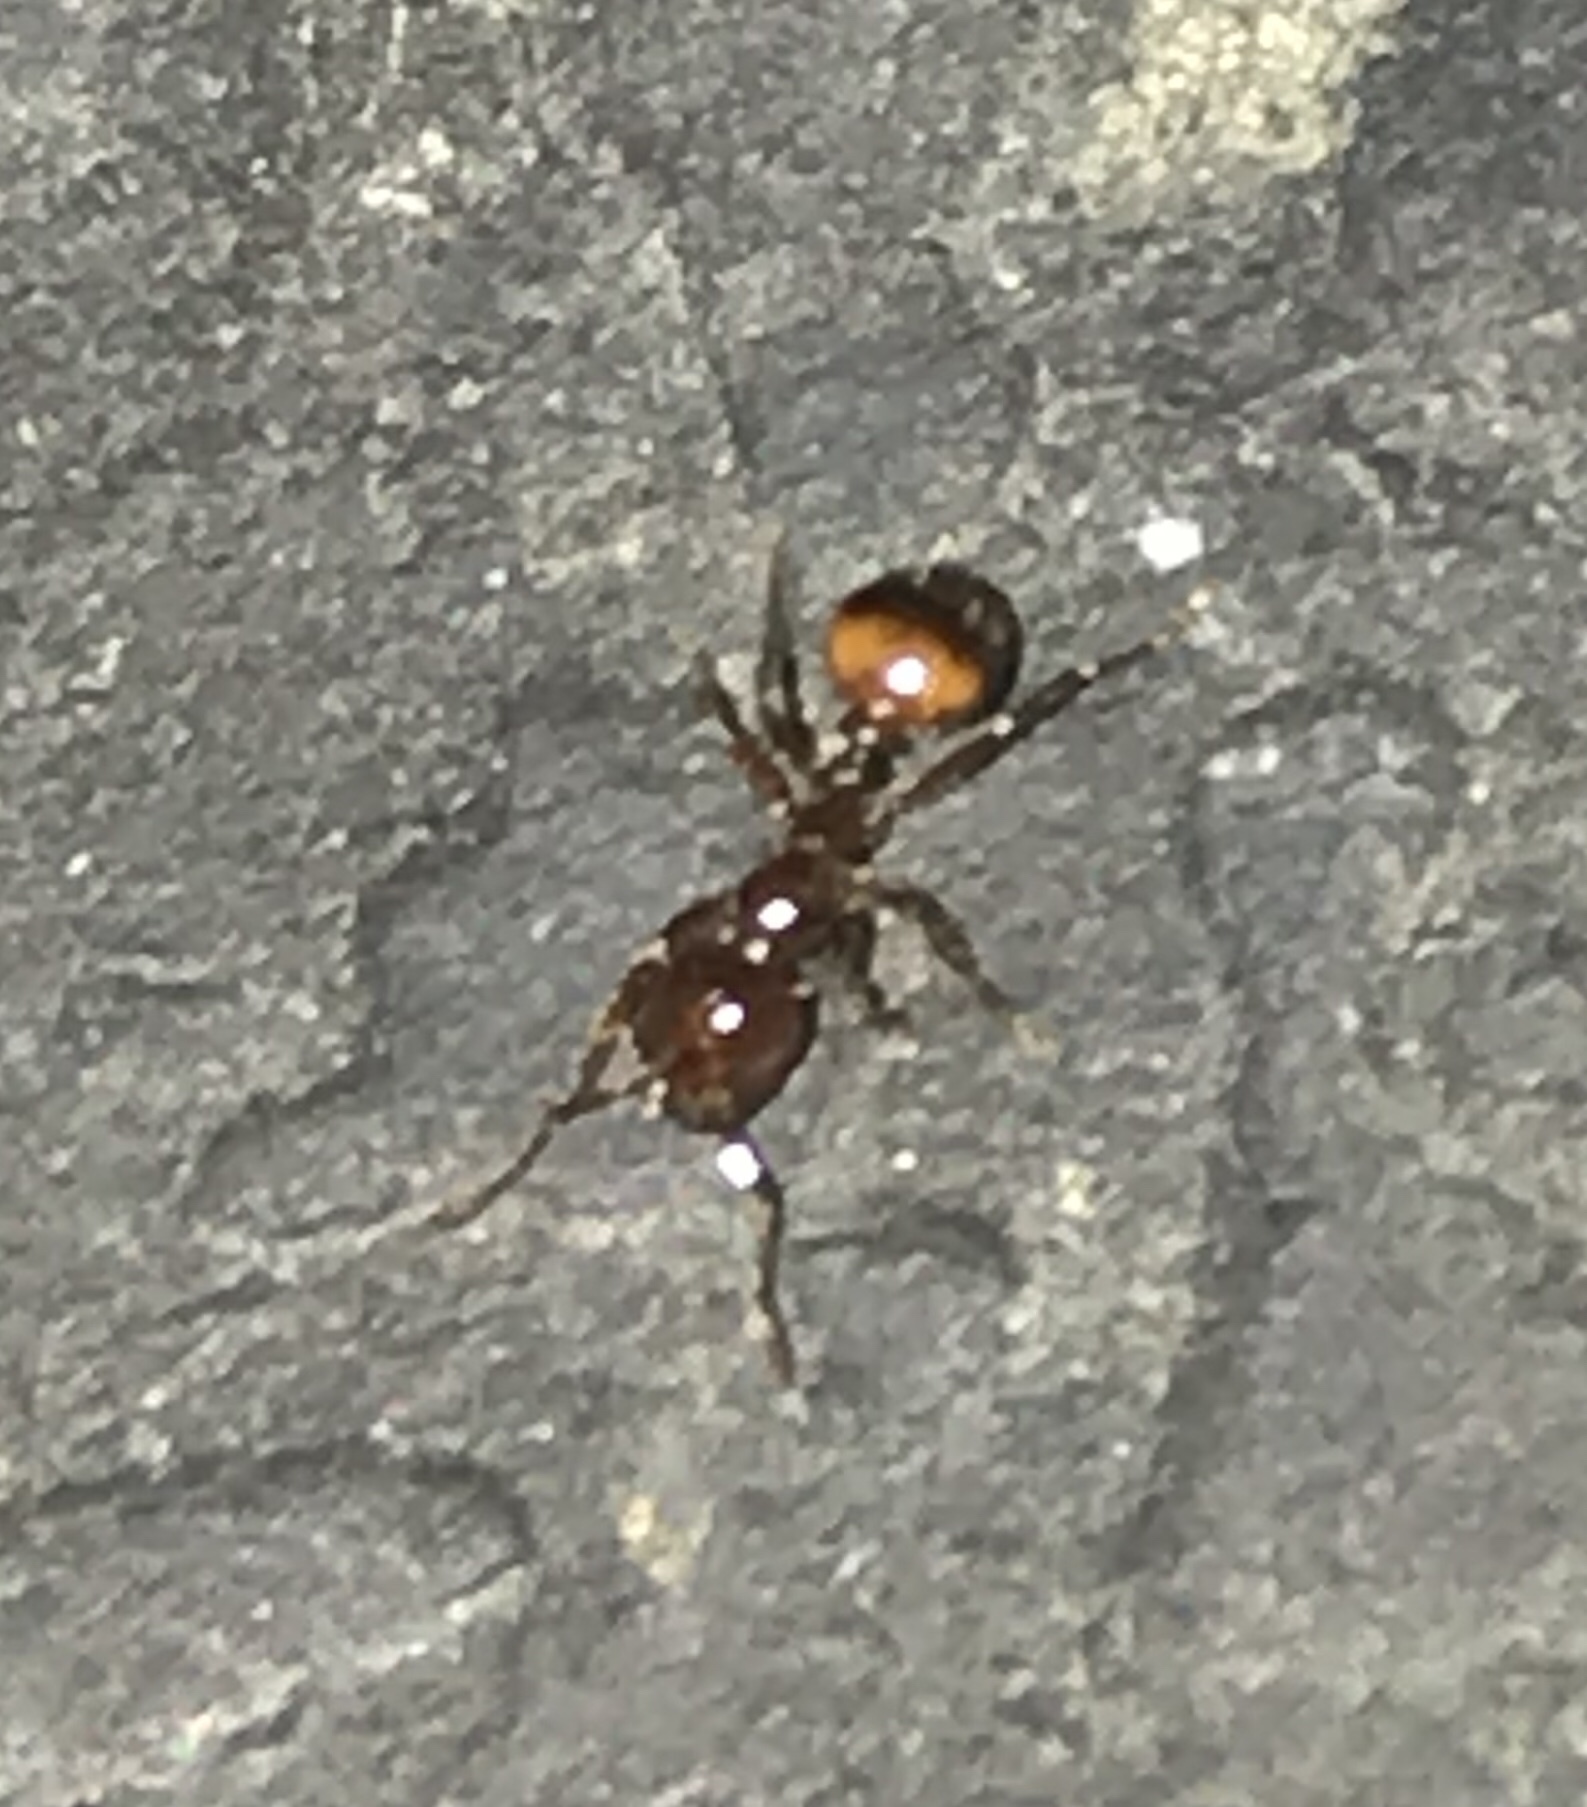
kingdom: Animalia
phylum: Arthropoda
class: Insecta
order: Hymenoptera
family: Formicidae
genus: Solenopsis
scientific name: Solenopsis
